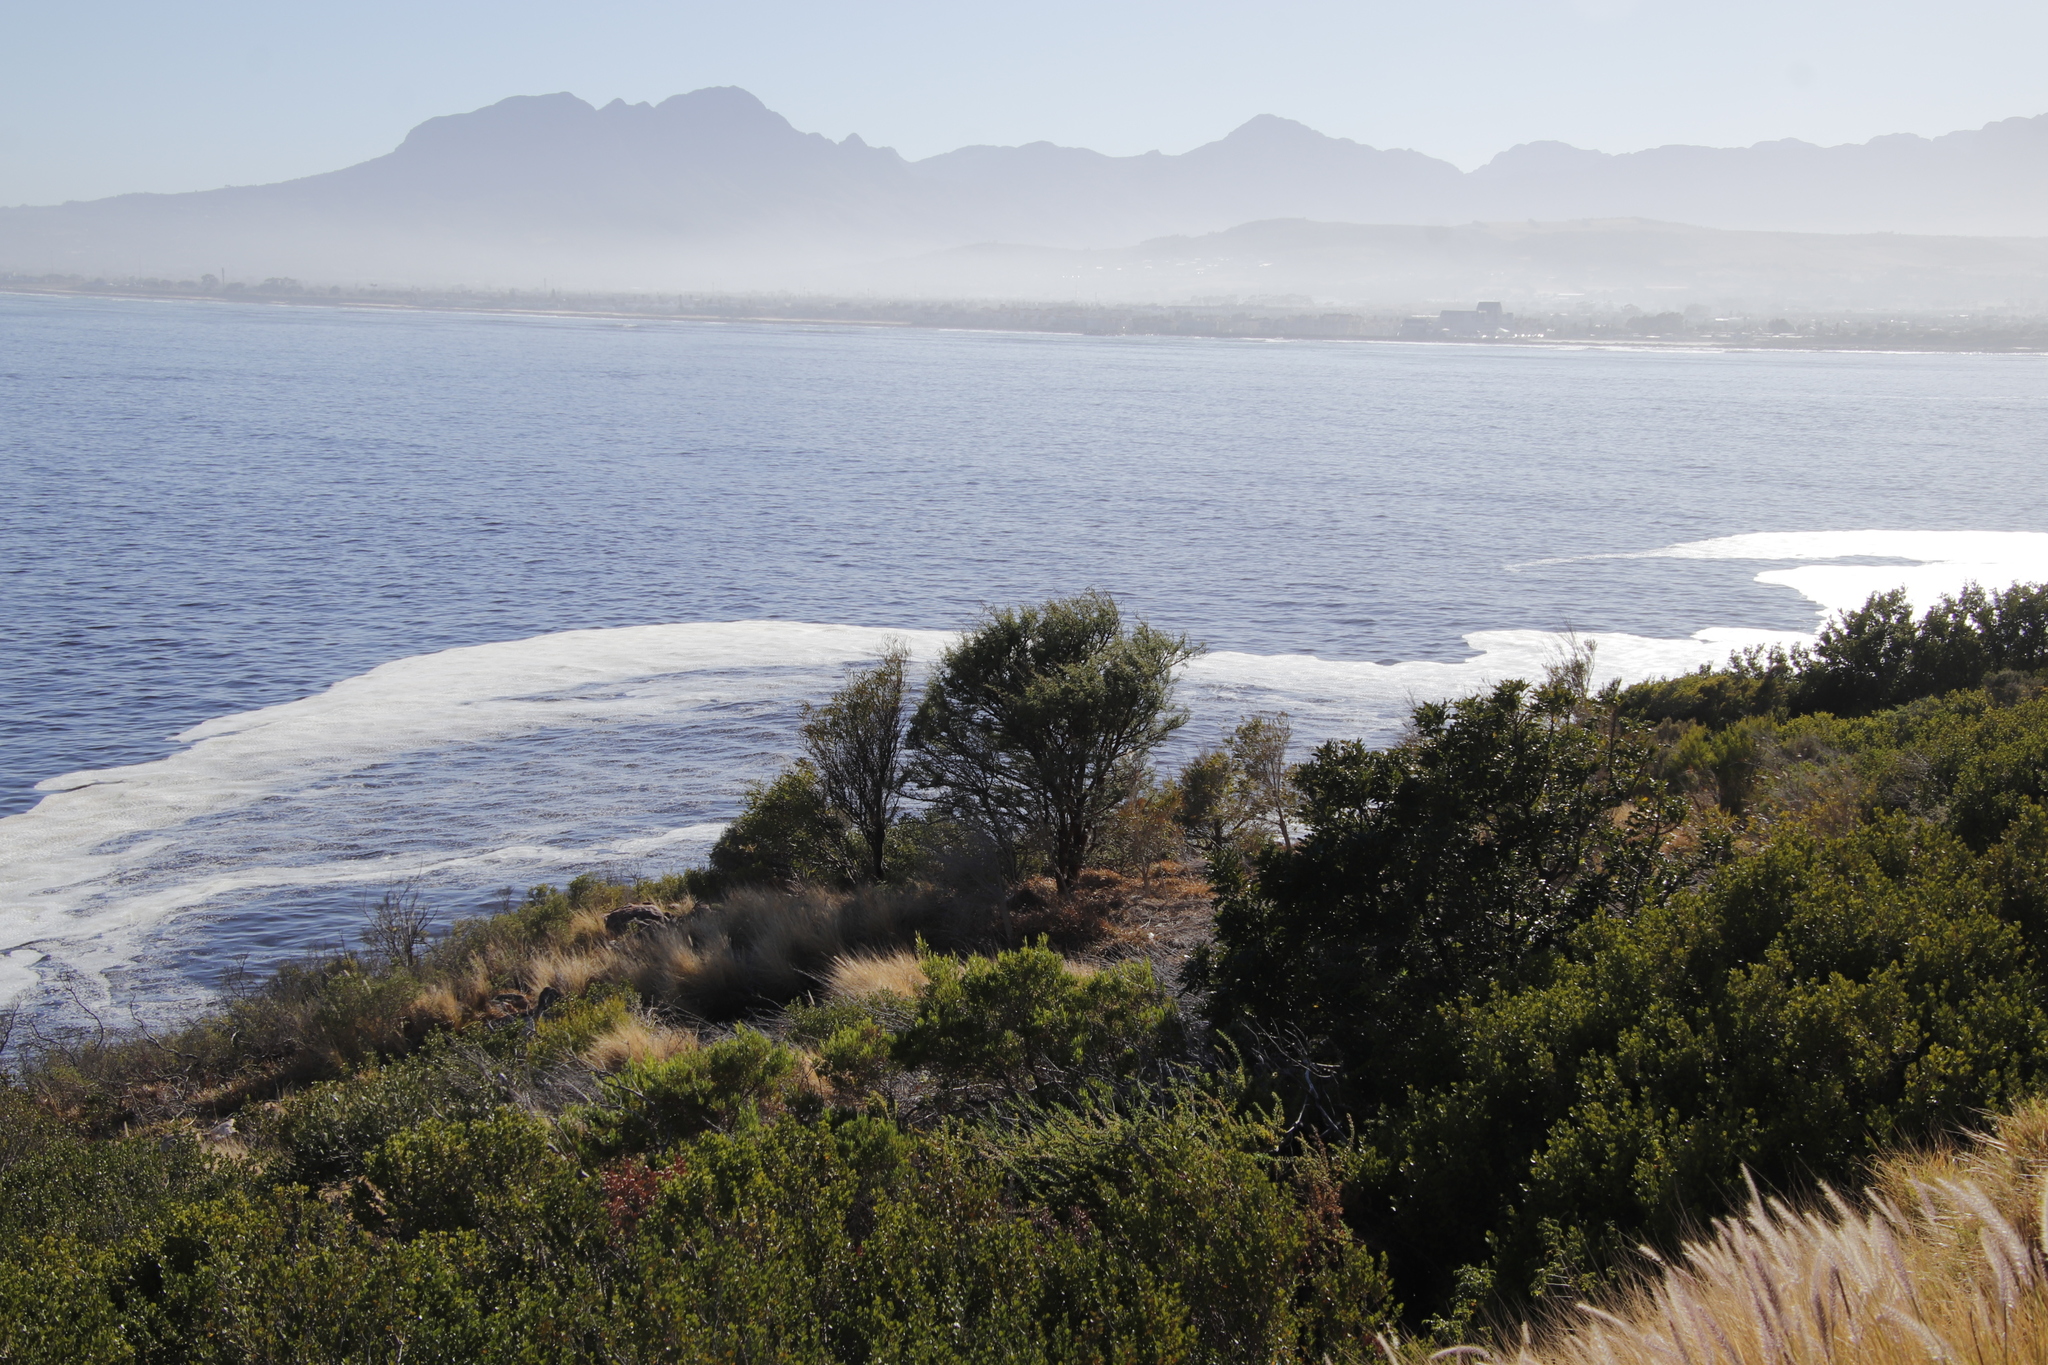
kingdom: Plantae
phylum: Tracheophyta
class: Magnoliopsida
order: Fabales
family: Fabaceae
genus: Vachellia
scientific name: Vachellia karroo
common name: Sweet thorn
